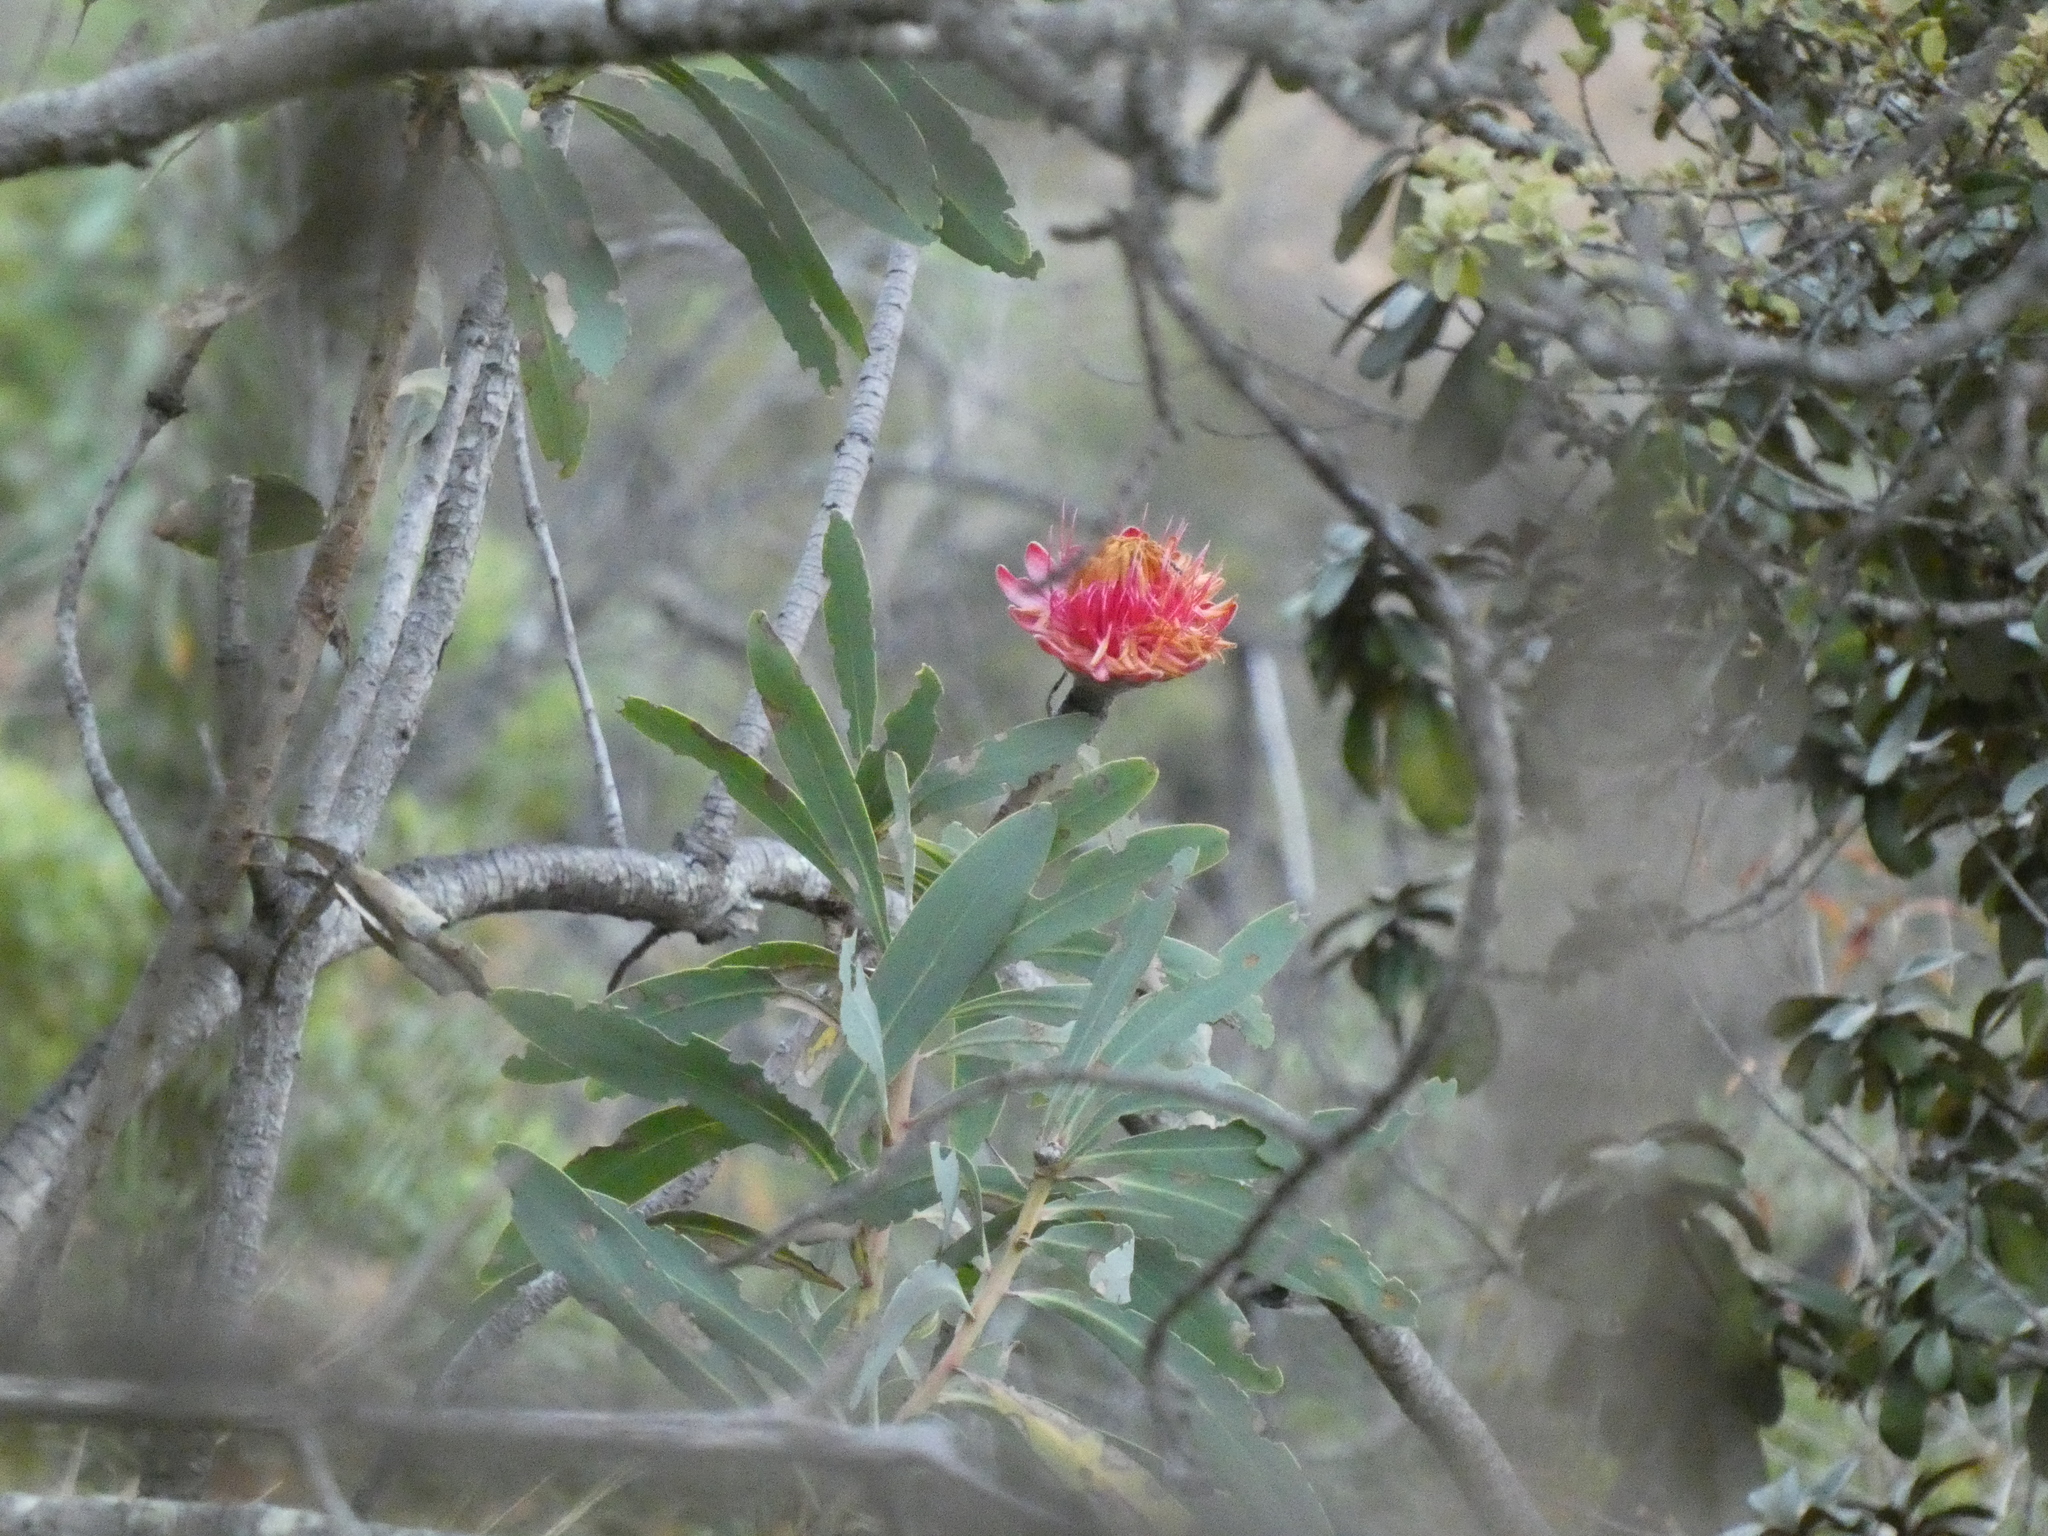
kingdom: Plantae
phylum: Tracheophyta
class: Magnoliopsida
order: Proteales
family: Proteaceae
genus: Protea
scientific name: Protea laetans
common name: Blyde protea
